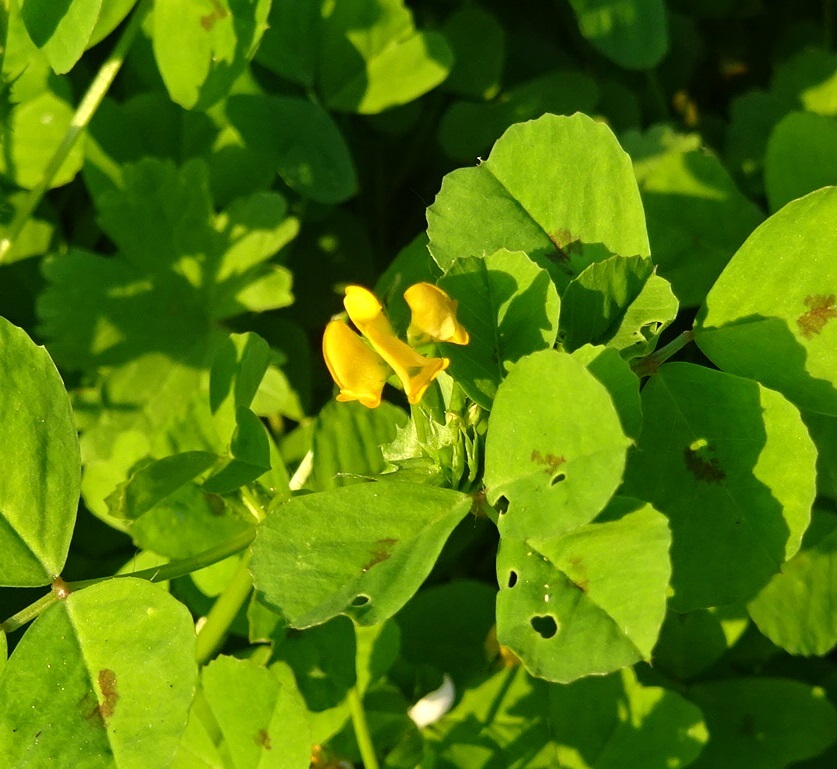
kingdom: Plantae
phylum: Tracheophyta
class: Magnoliopsida
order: Fabales
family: Fabaceae
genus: Medicago
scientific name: Medicago arabica
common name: Spotted medick
